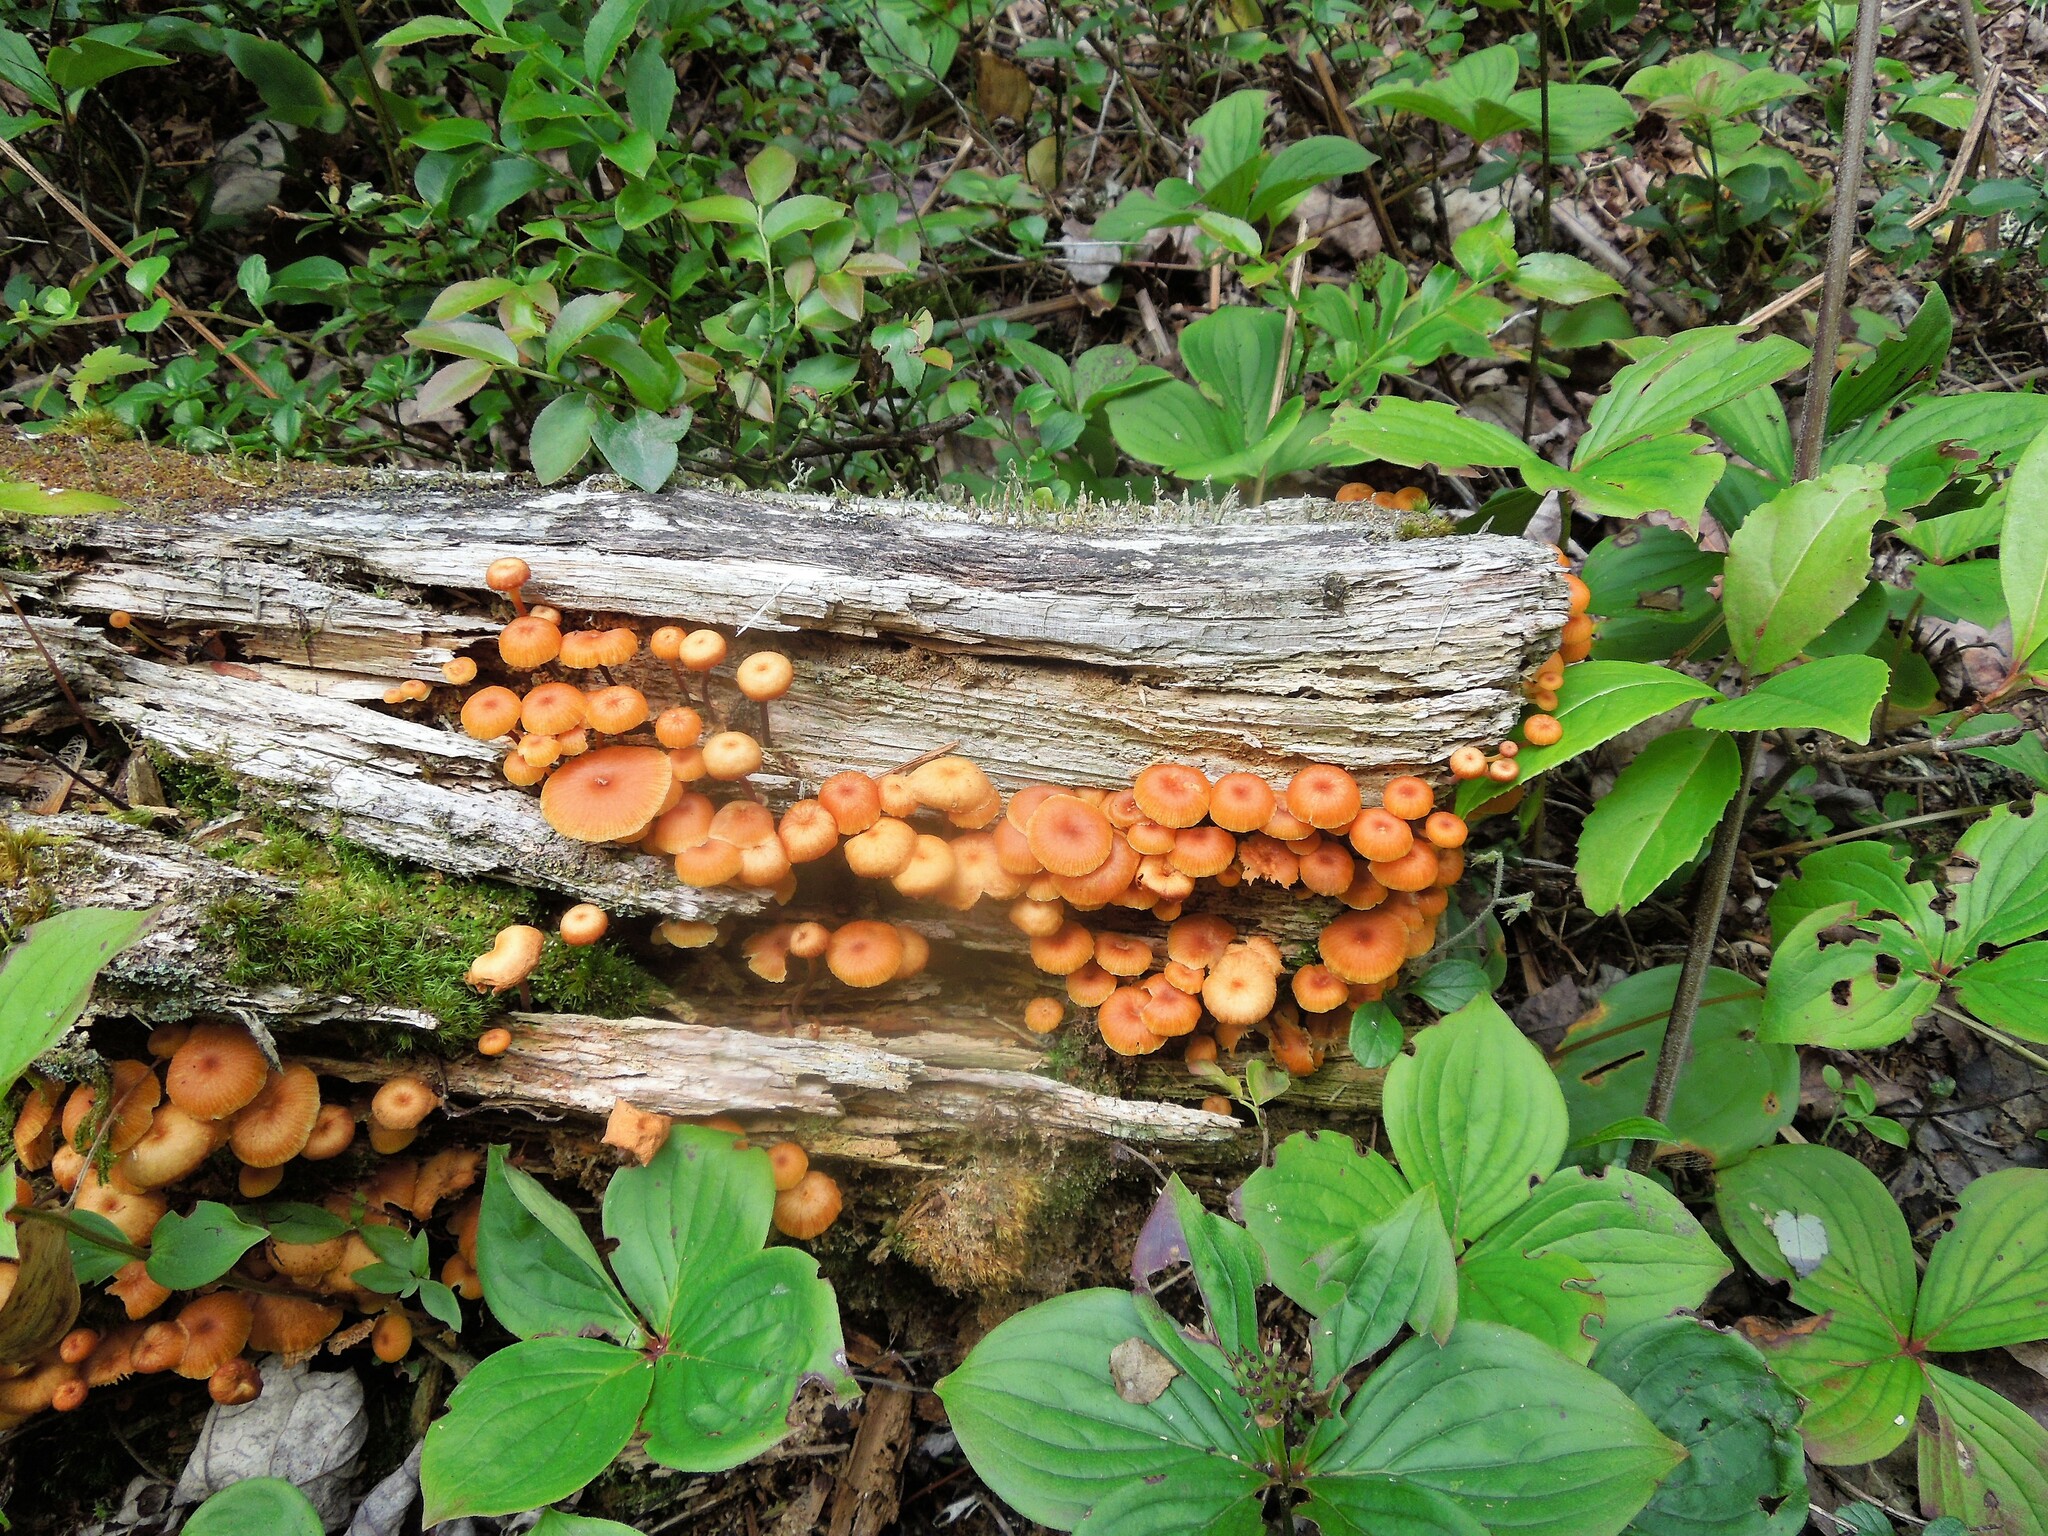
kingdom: Fungi
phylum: Basidiomycota
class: Agaricomycetes
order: Agaricales
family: Mycenaceae
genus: Xeromphalina
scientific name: Xeromphalina
